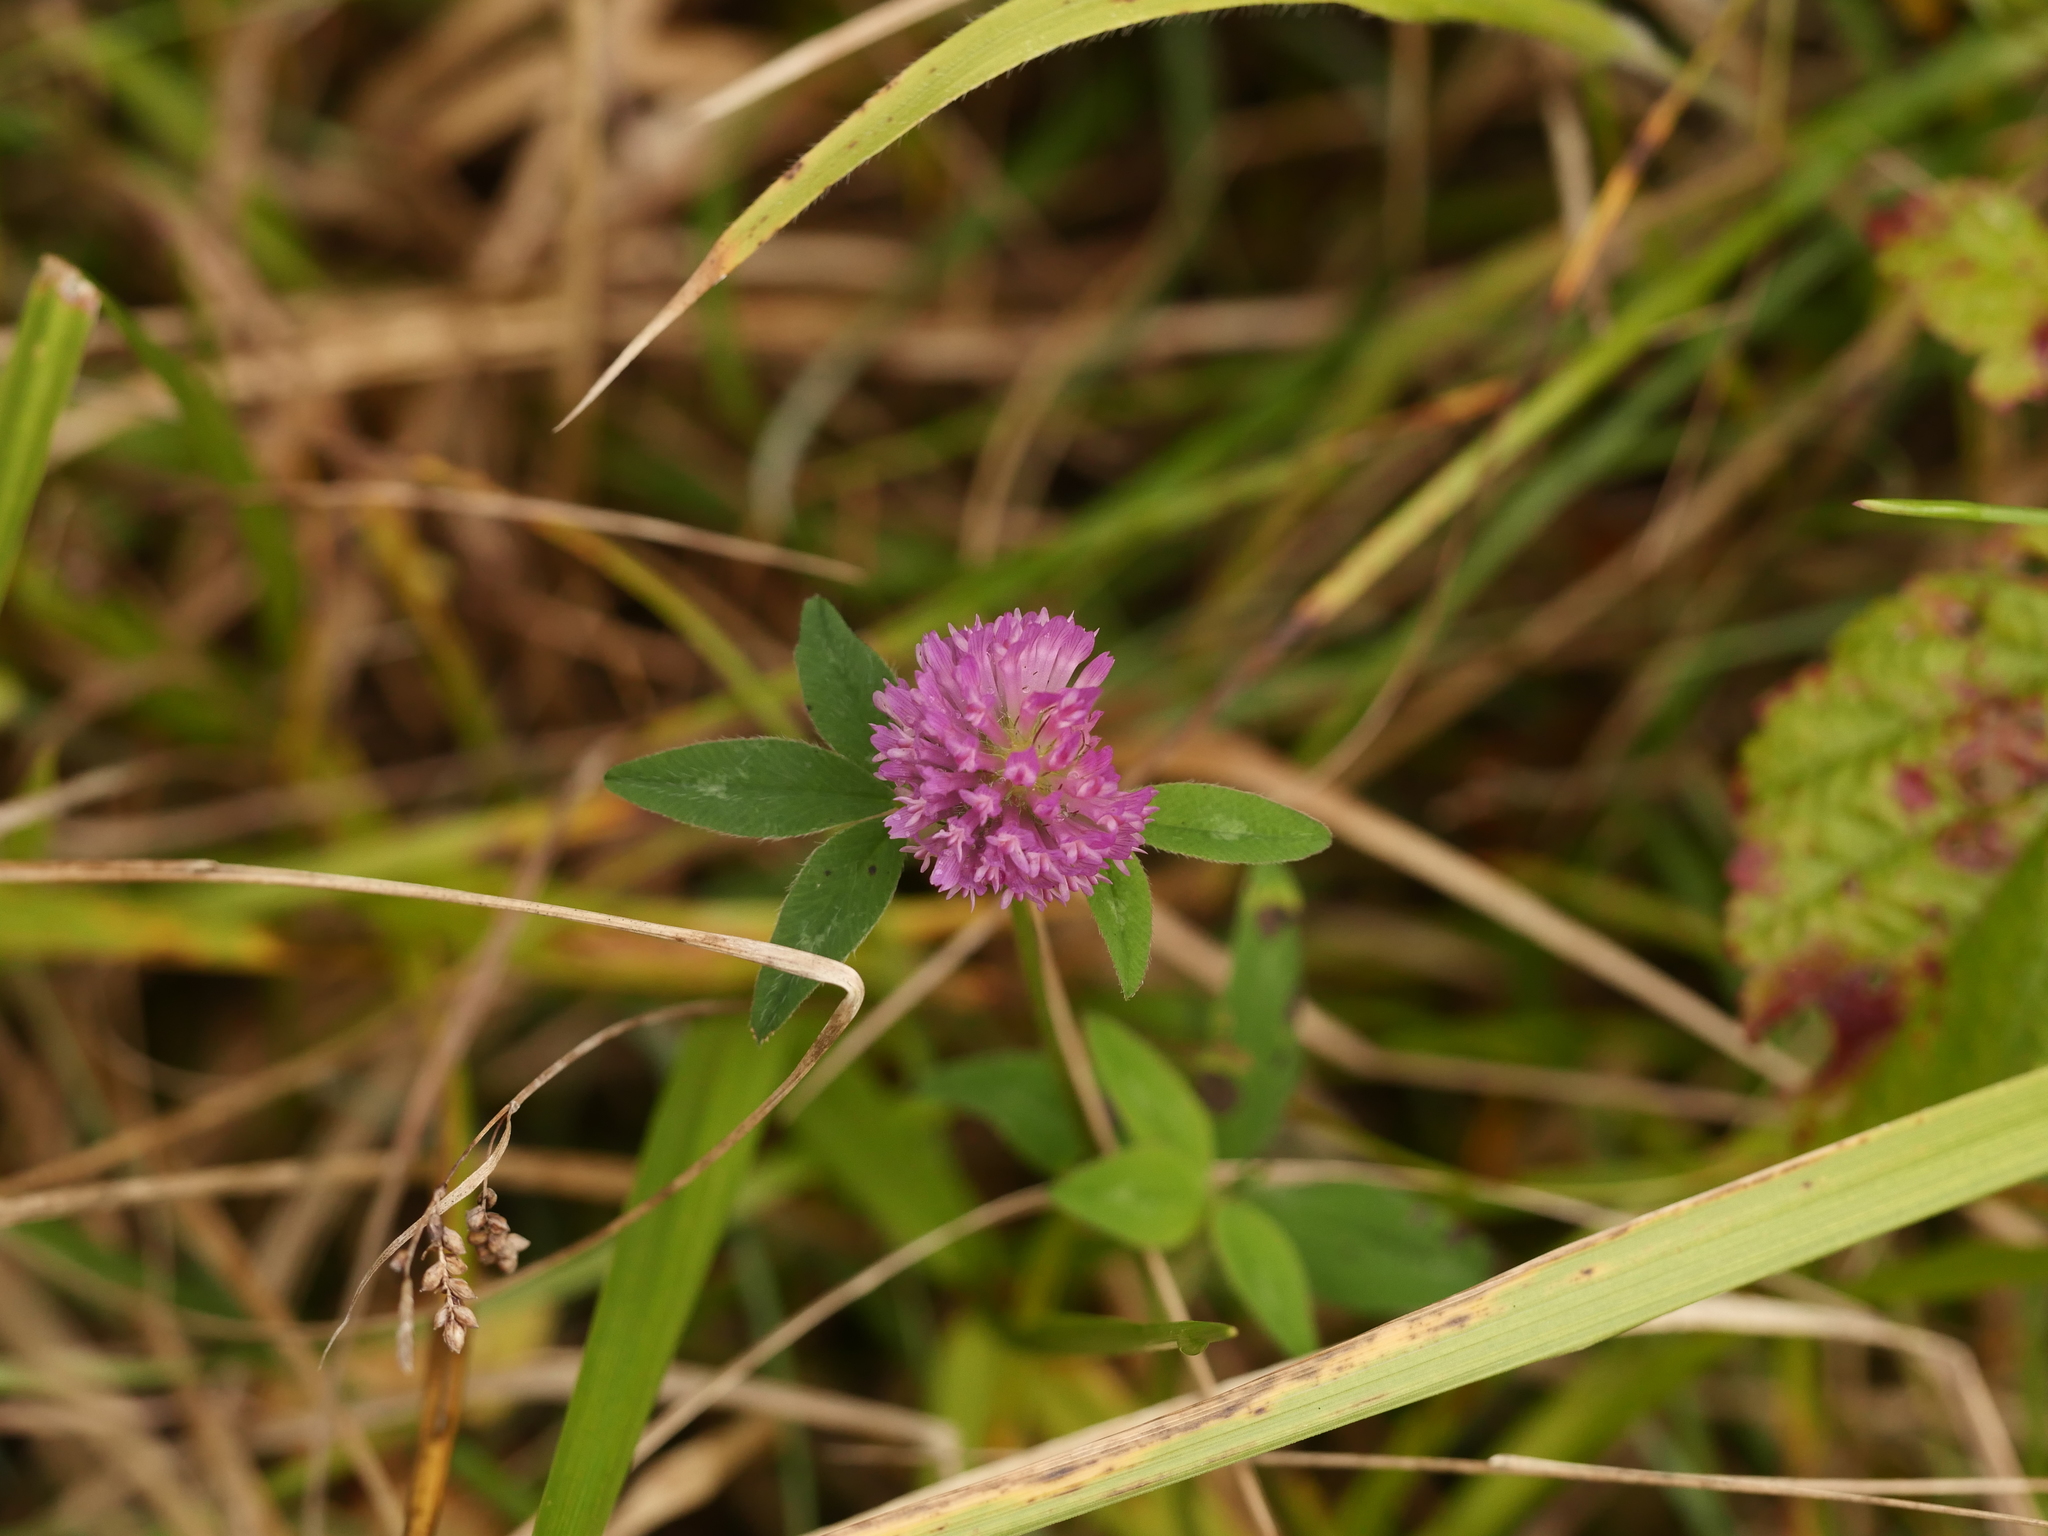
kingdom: Plantae
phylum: Tracheophyta
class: Magnoliopsida
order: Fabales
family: Fabaceae
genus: Trifolium
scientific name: Trifolium pratense
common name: Red clover
